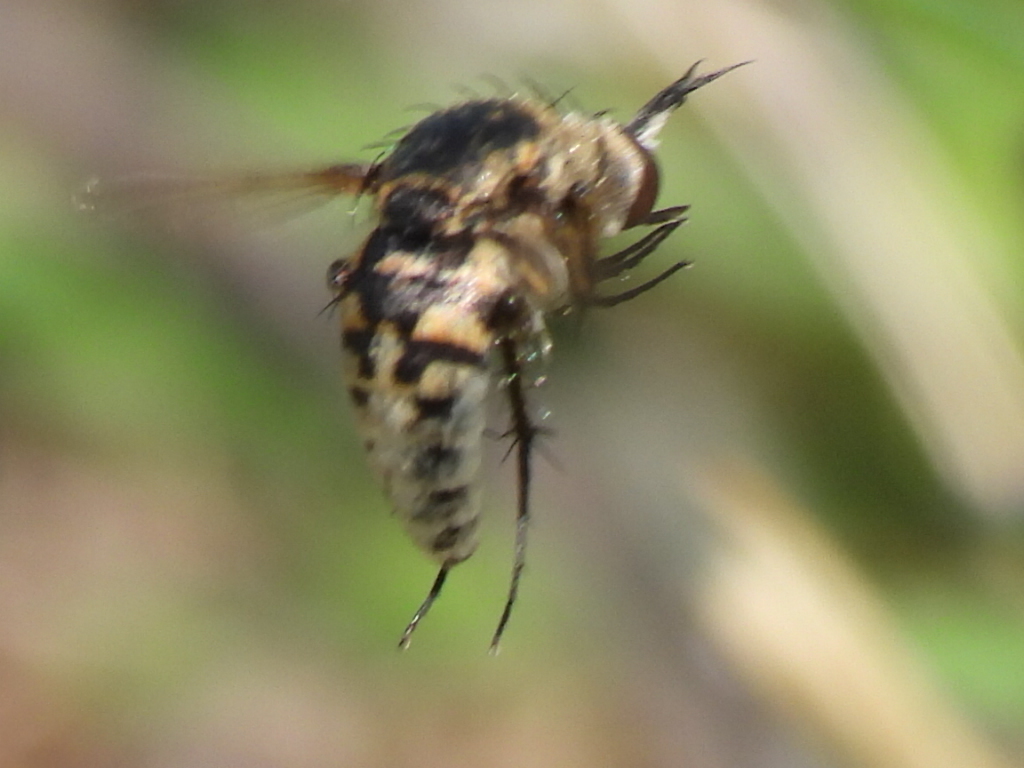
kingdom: Animalia
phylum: Arthropoda
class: Insecta
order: Diptera
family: Bombyliidae
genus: Toxophora
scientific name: Toxophora amphitea
